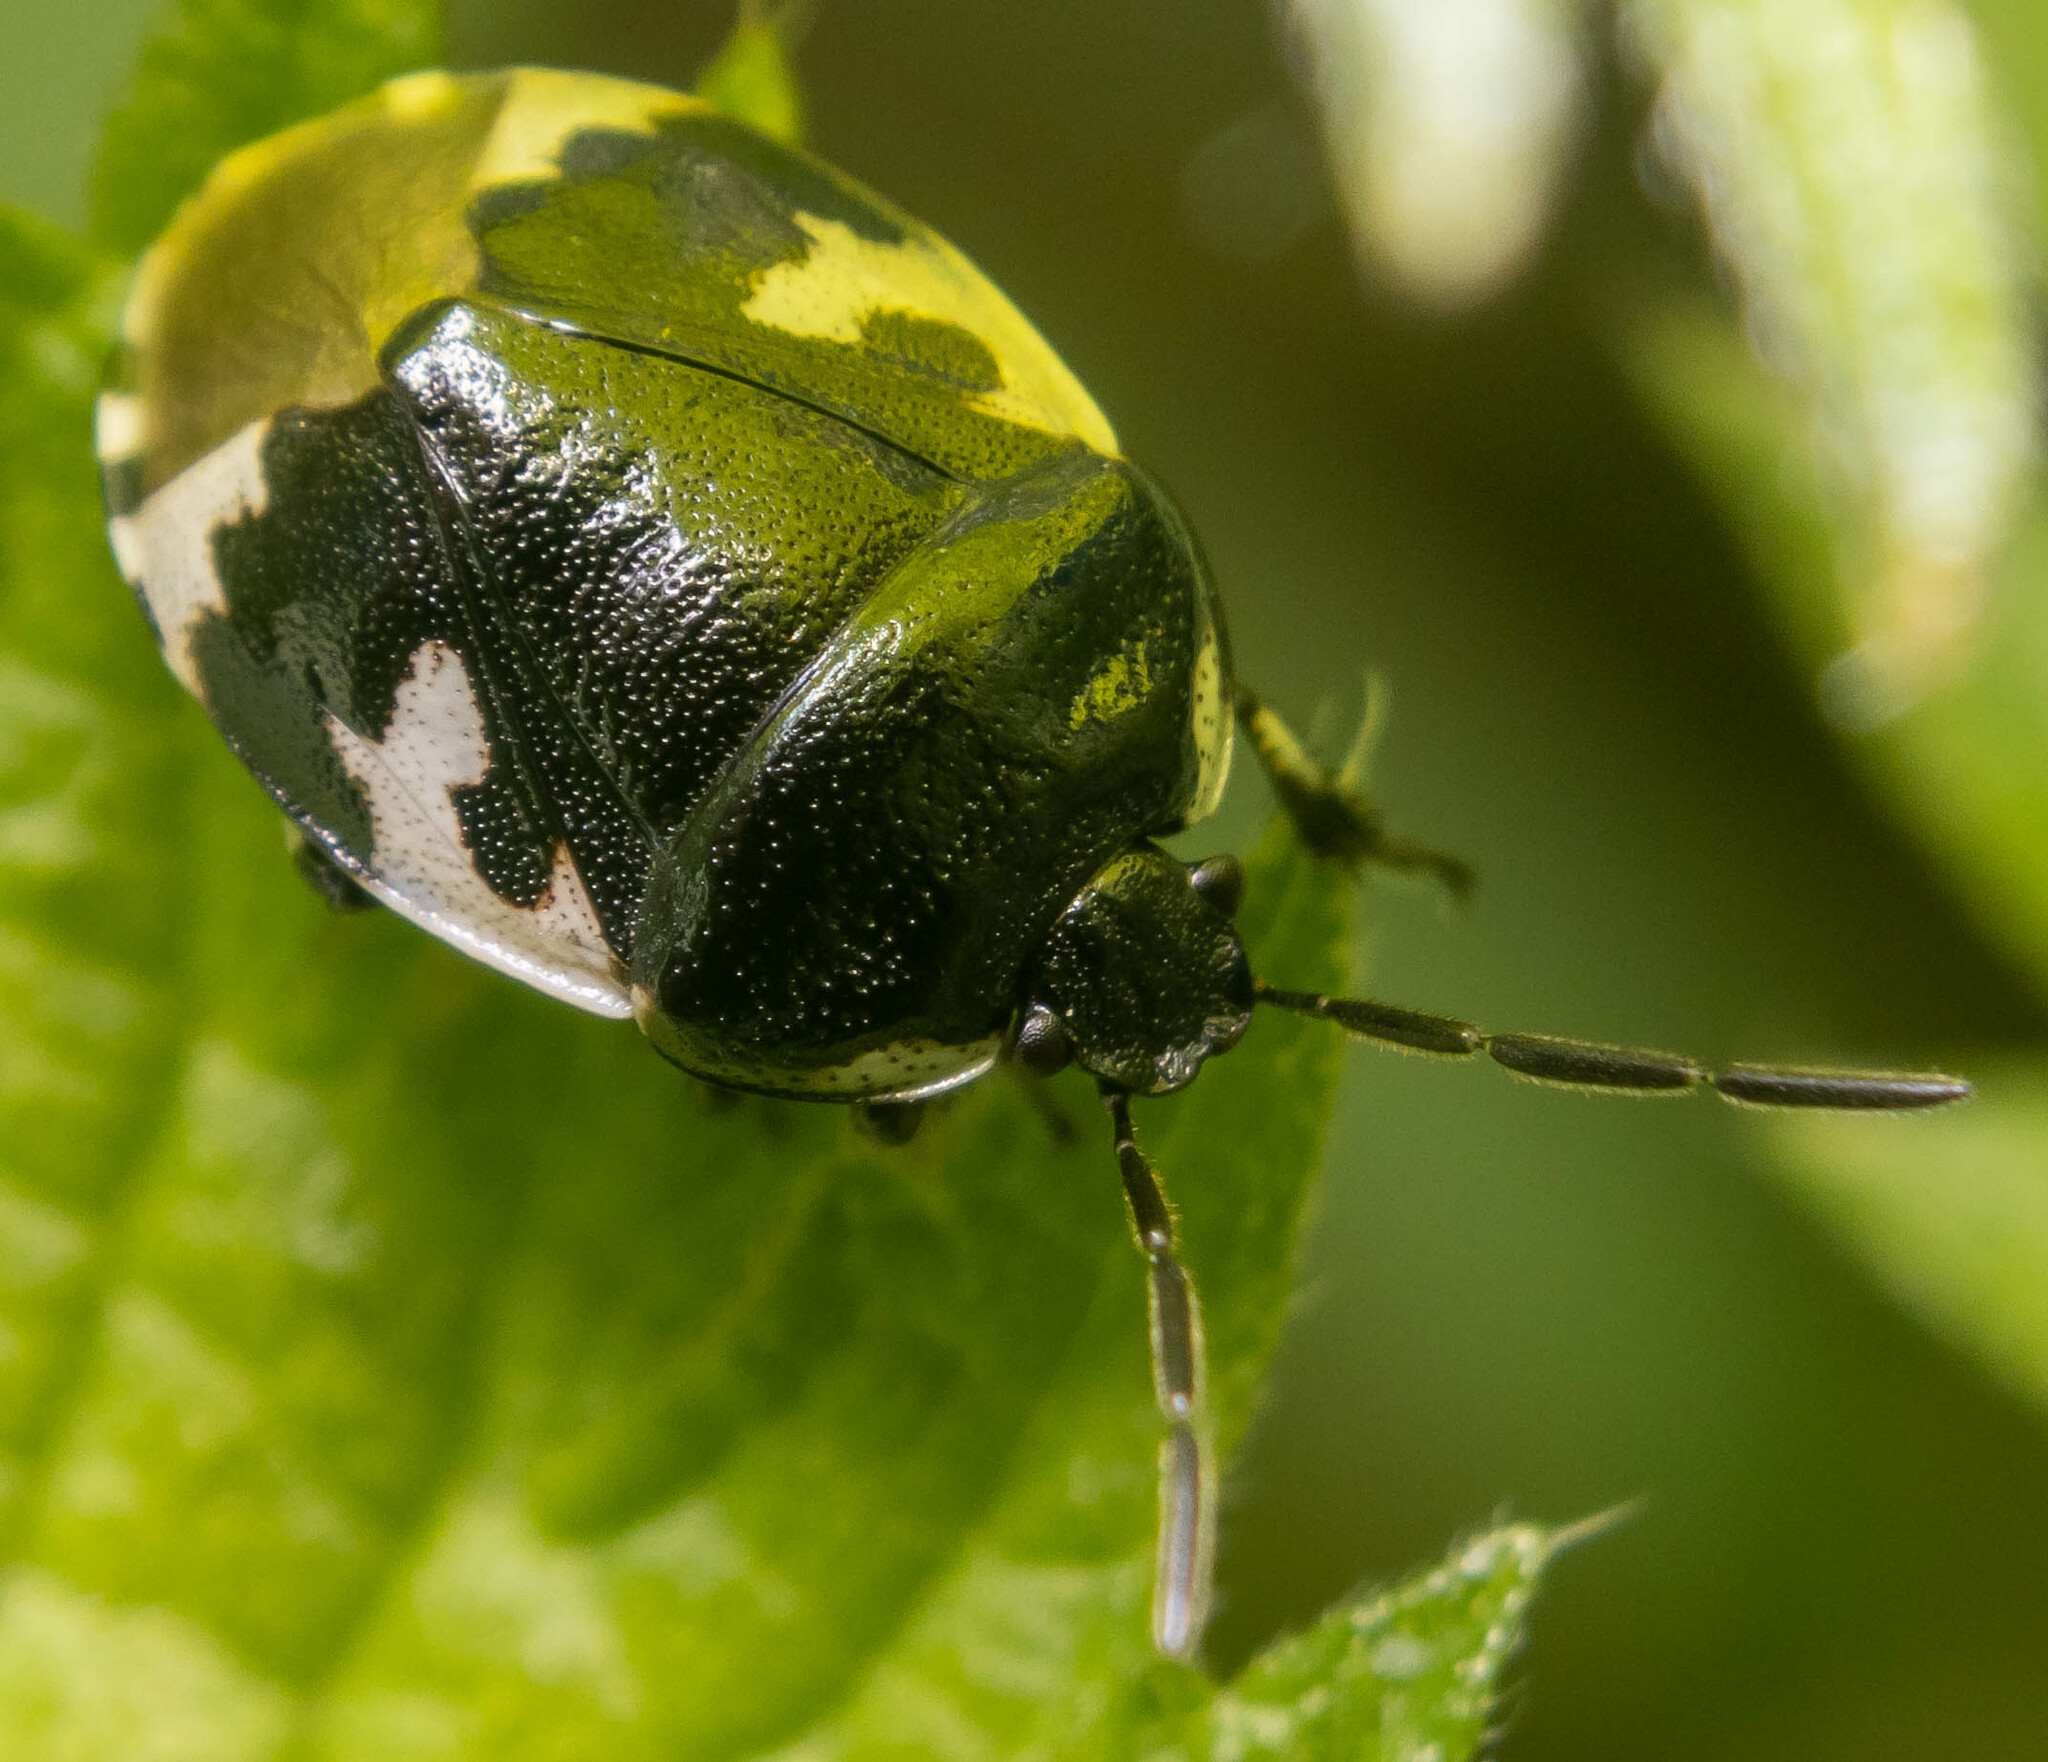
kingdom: Animalia
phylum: Arthropoda
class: Insecta
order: Hemiptera
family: Cydnidae
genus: Tritomegas
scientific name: Tritomegas bicolor
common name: Pied shieldbug
